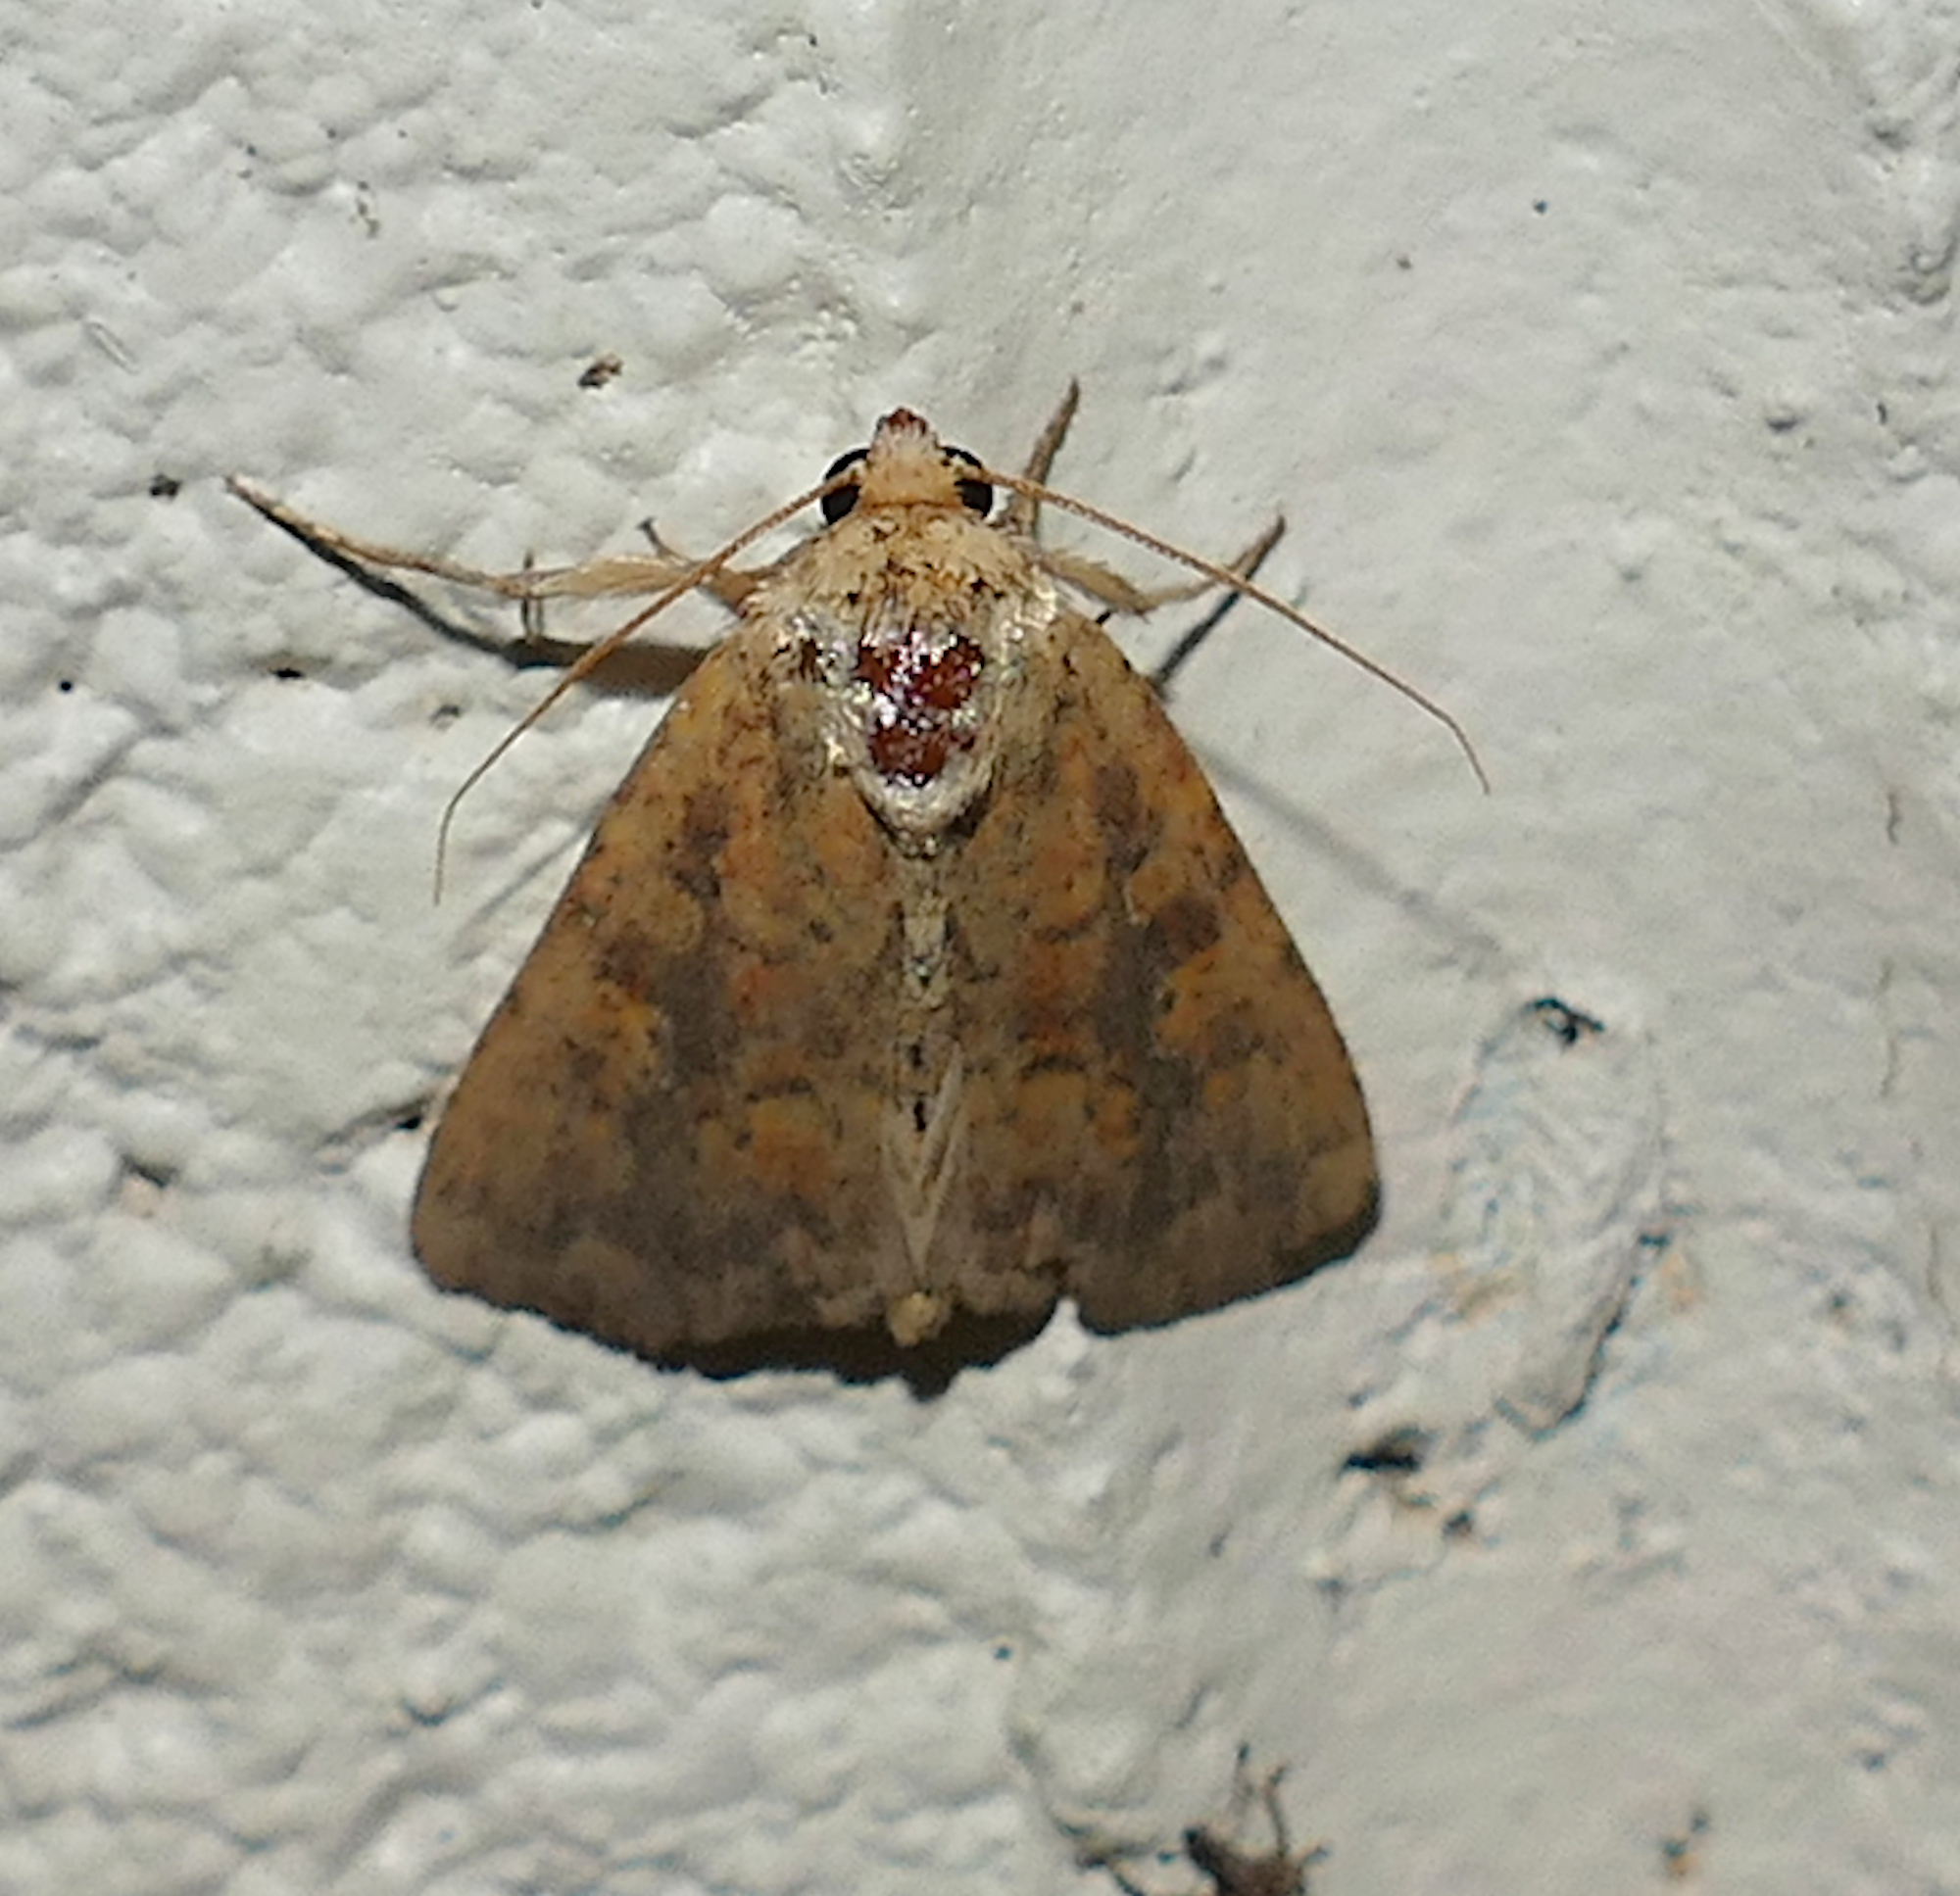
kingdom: Animalia
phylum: Arthropoda
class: Insecta
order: Lepidoptera
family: Noctuidae
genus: Perigea
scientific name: Perigea xanthioides
